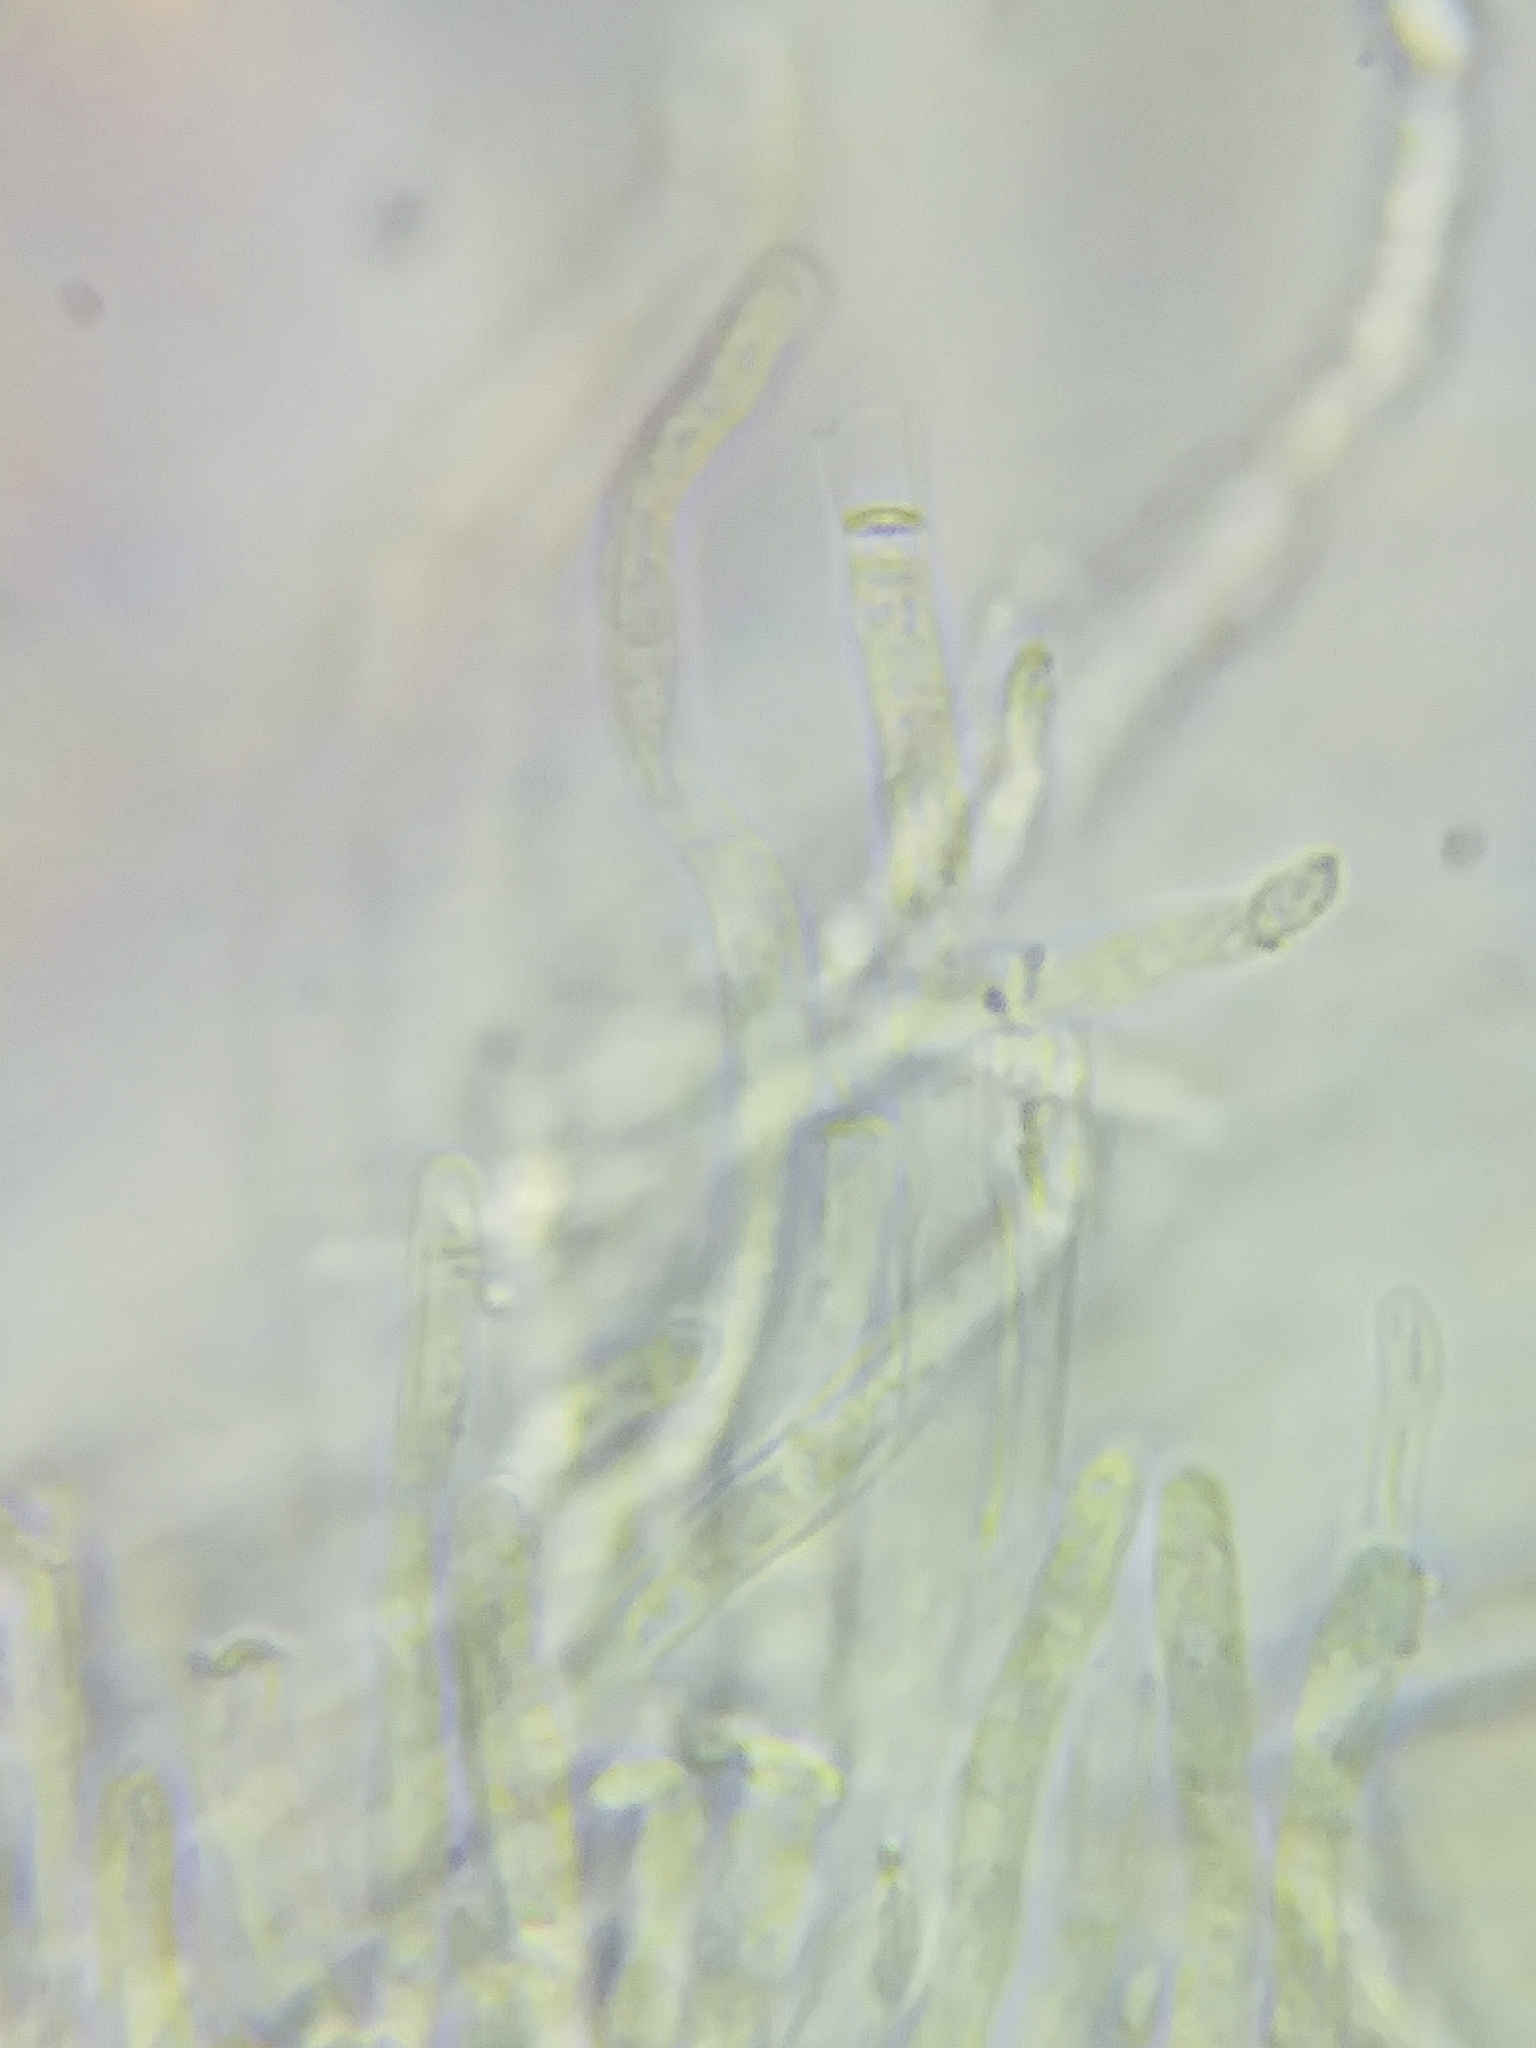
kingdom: Fungi
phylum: Basidiomycota
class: Agaricomycetes
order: Polyporales
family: Incrustoporiaceae
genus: Tyromyces
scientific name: Tyromyces galactinus
